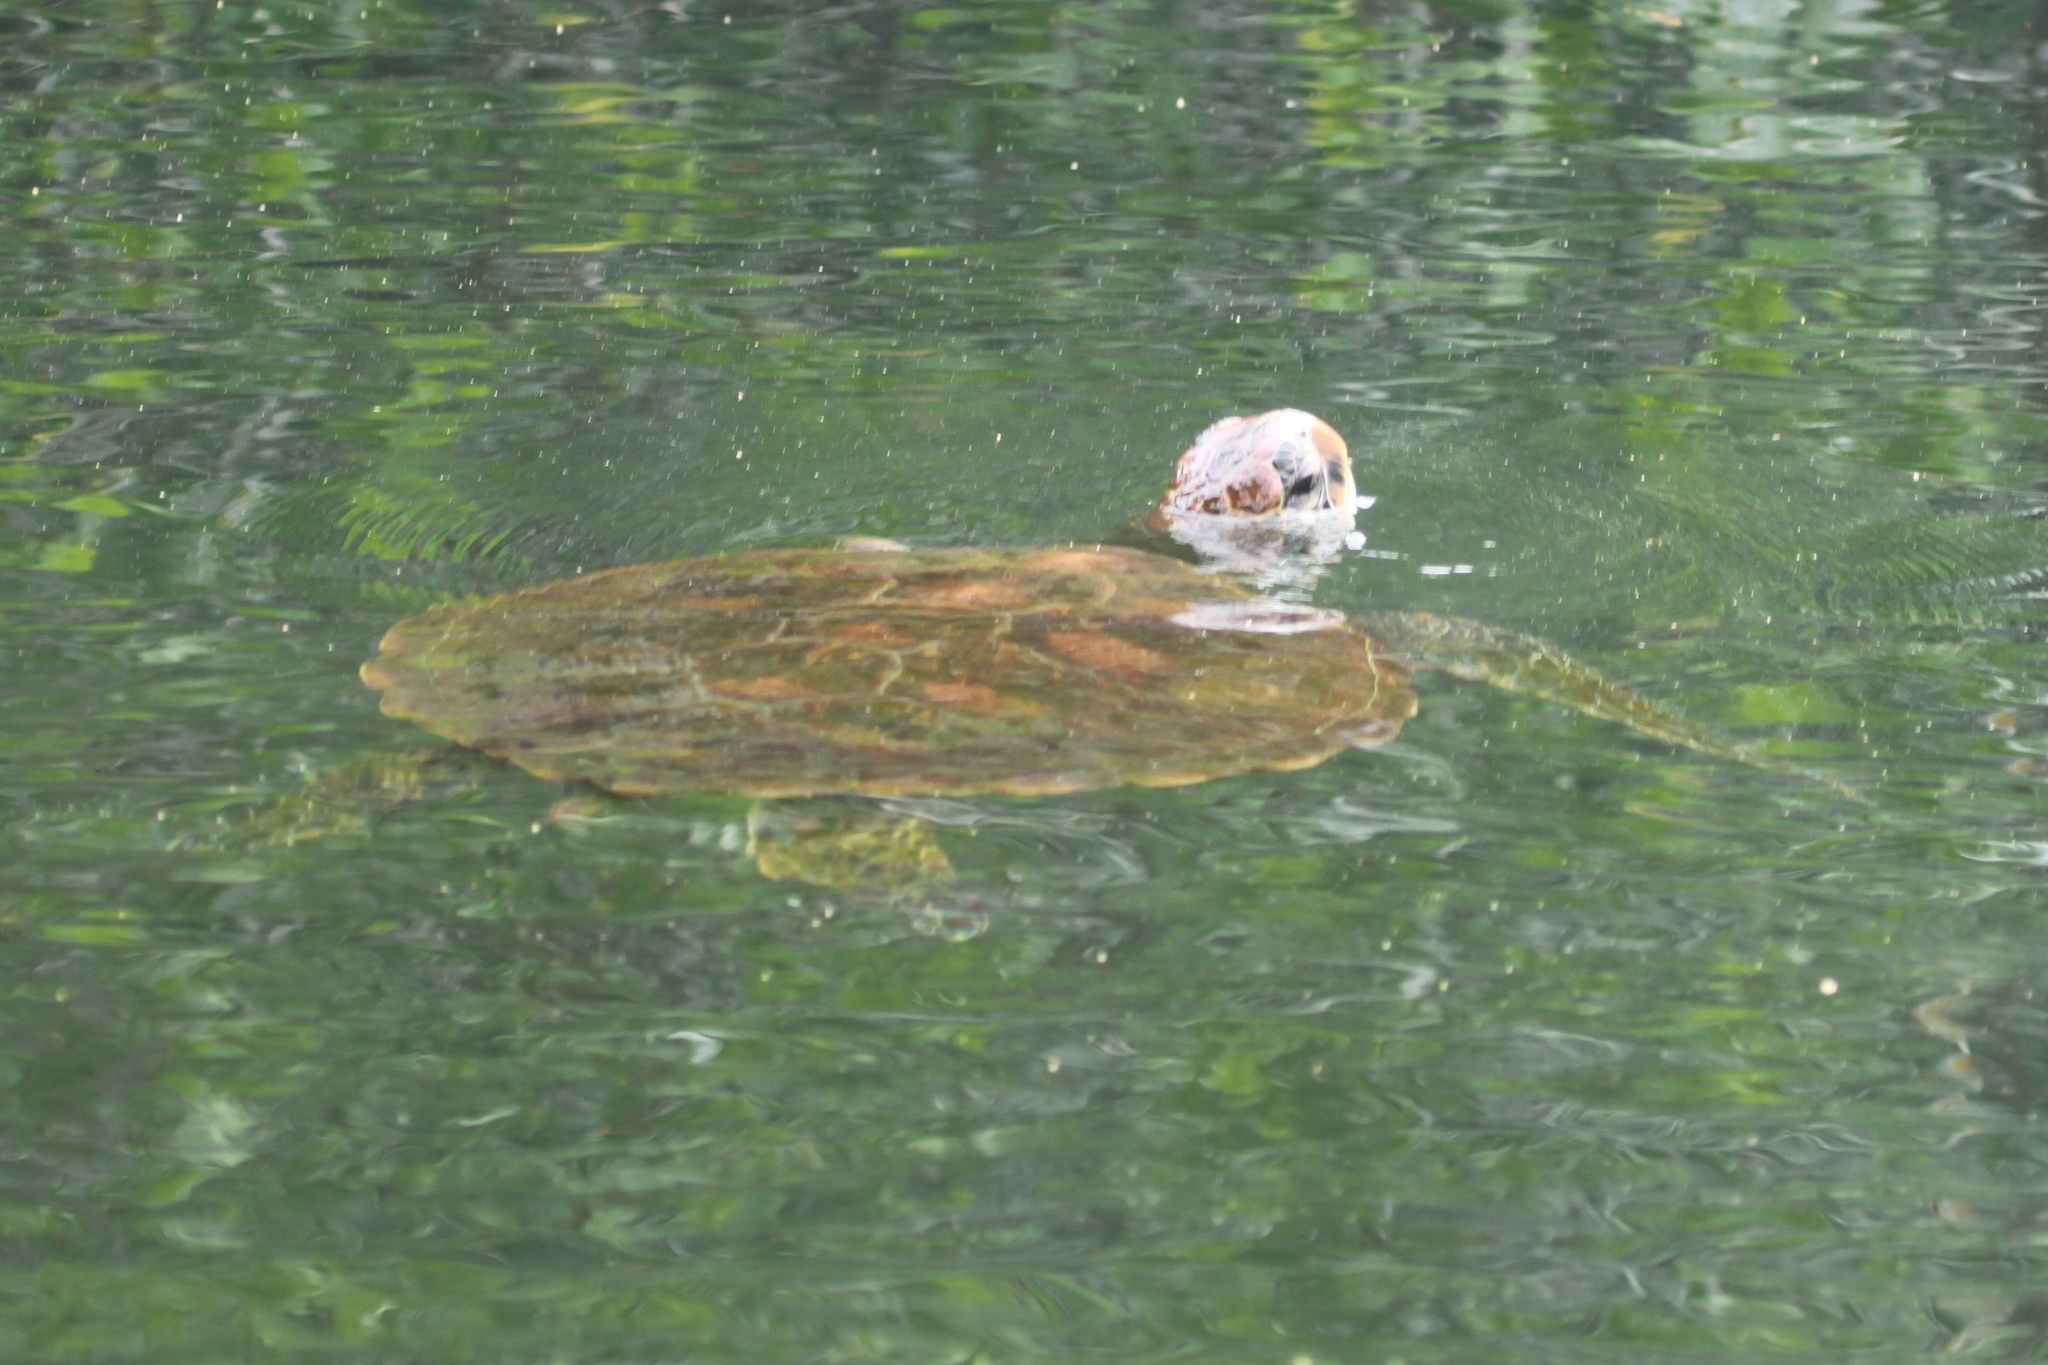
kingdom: Animalia
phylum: Chordata
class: Testudines
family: Cheloniidae
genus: Chelonia
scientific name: Chelonia mydas
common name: Green turtle
